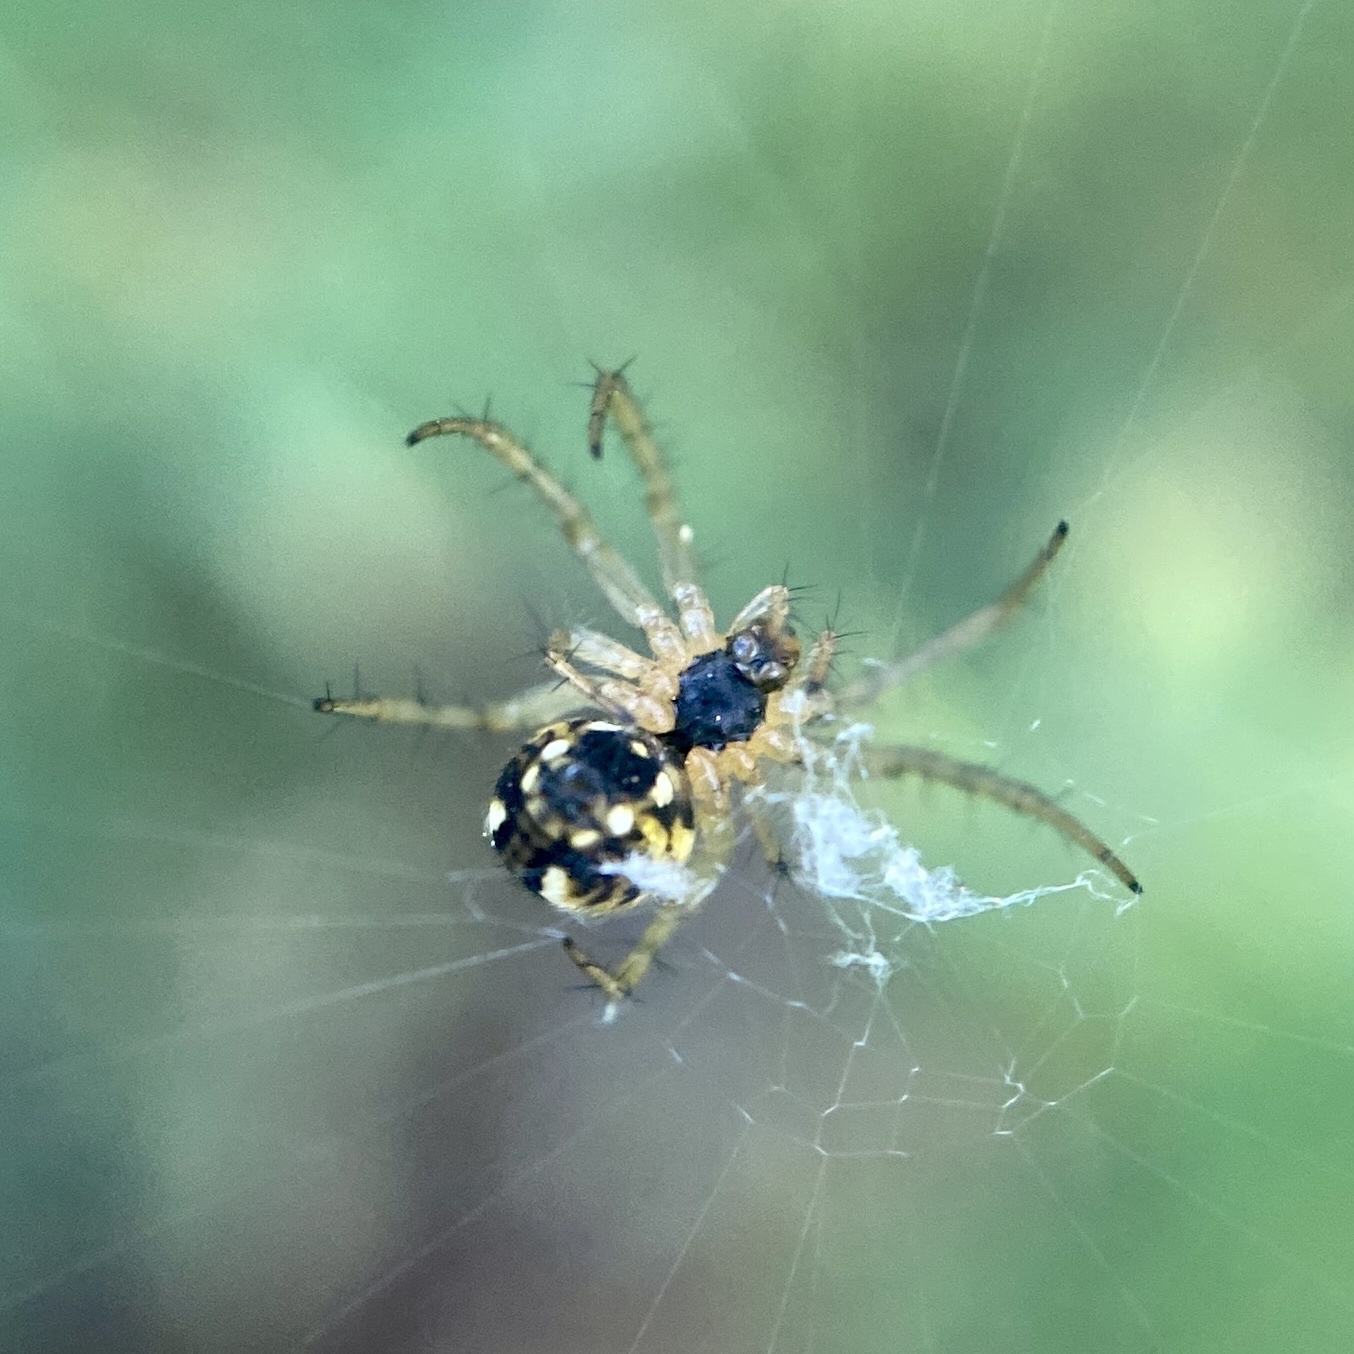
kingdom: Animalia
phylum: Arthropoda
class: Arachnida
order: Araneae
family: Araneidae
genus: Mangora
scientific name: Mangora acalypha
